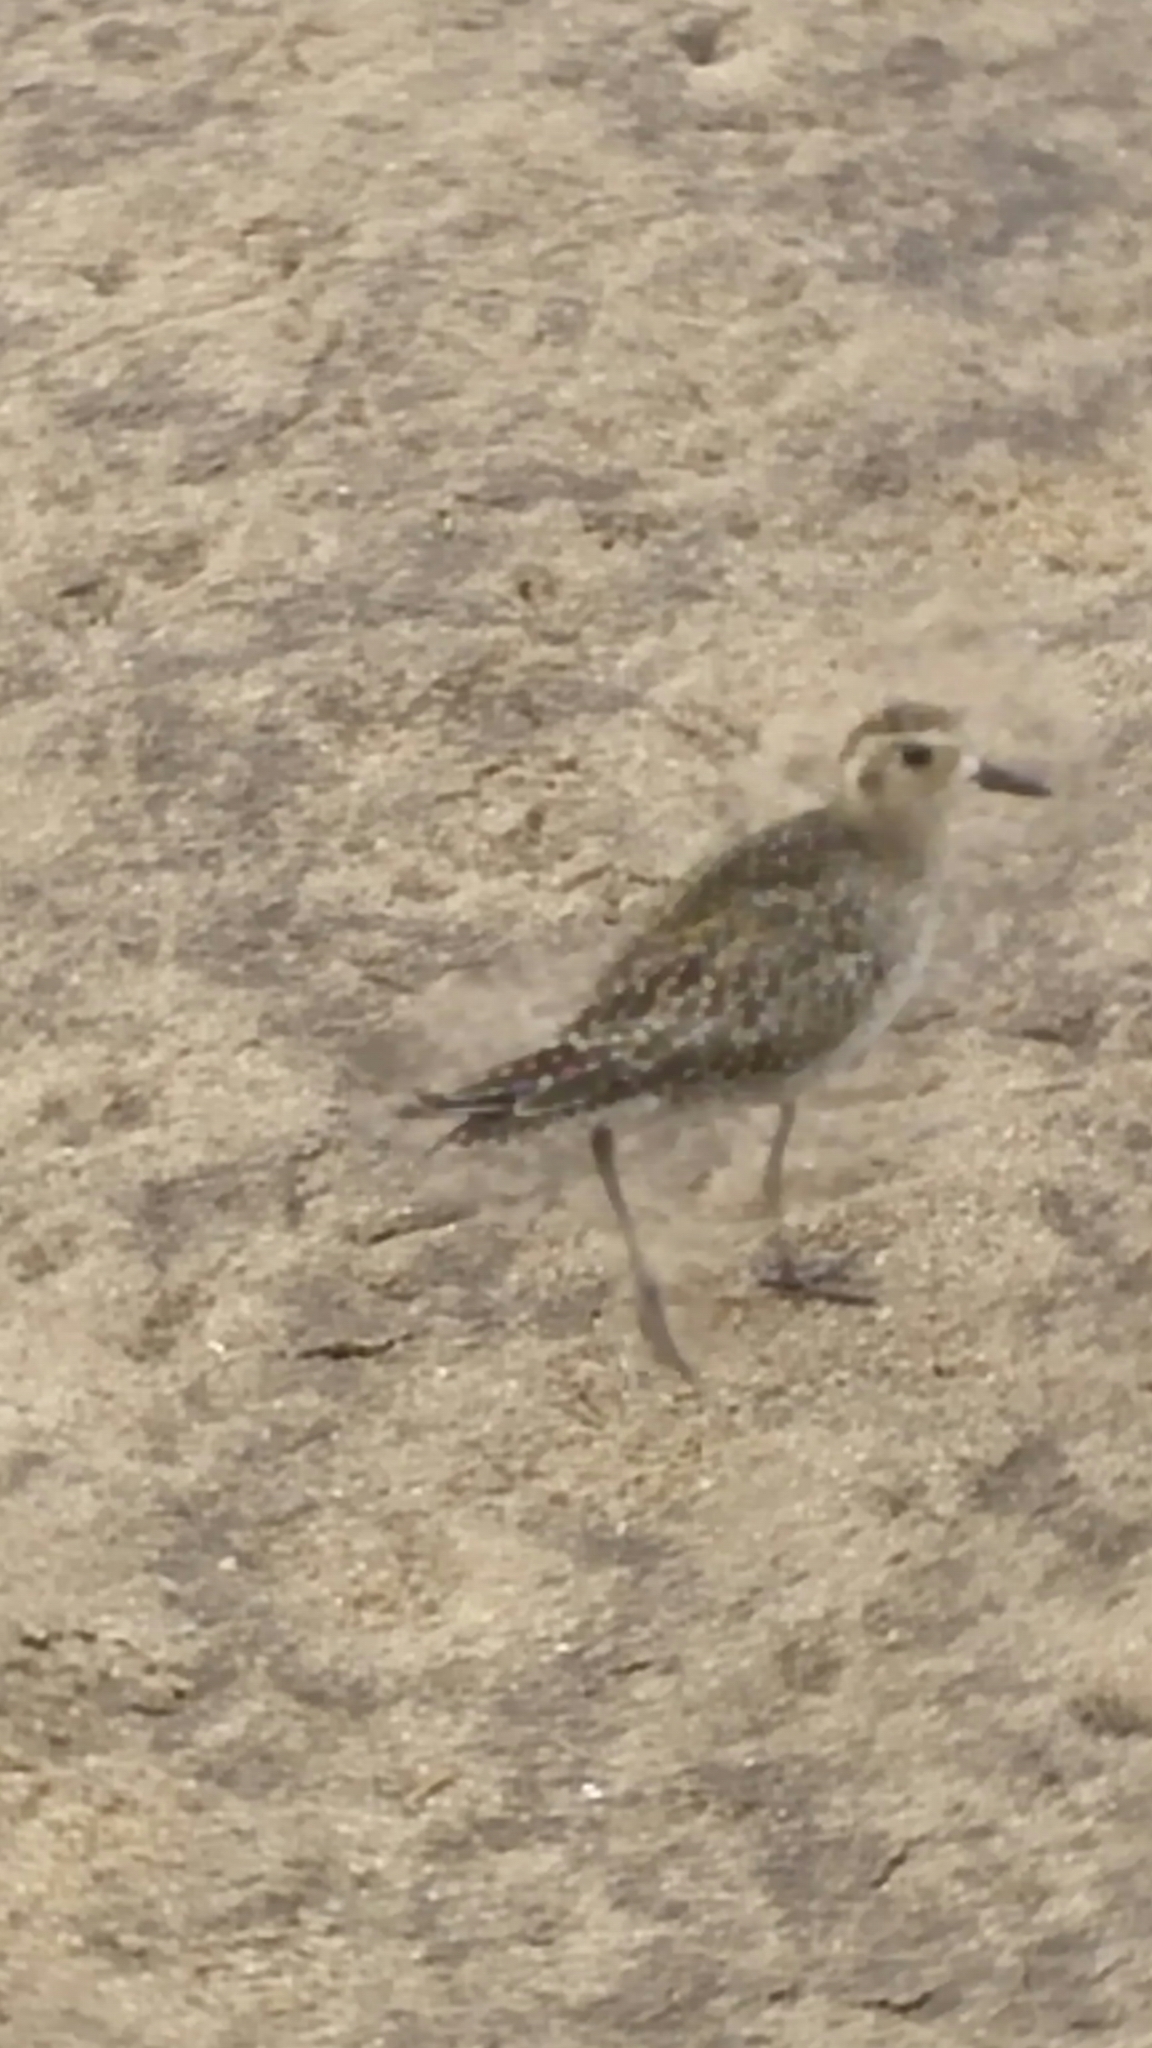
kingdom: Animalia
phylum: Chordata
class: Aves
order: Charadriiformes
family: Charadriidae
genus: Pluvialis
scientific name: Pluvialis fulva
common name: Pacific golden plover
